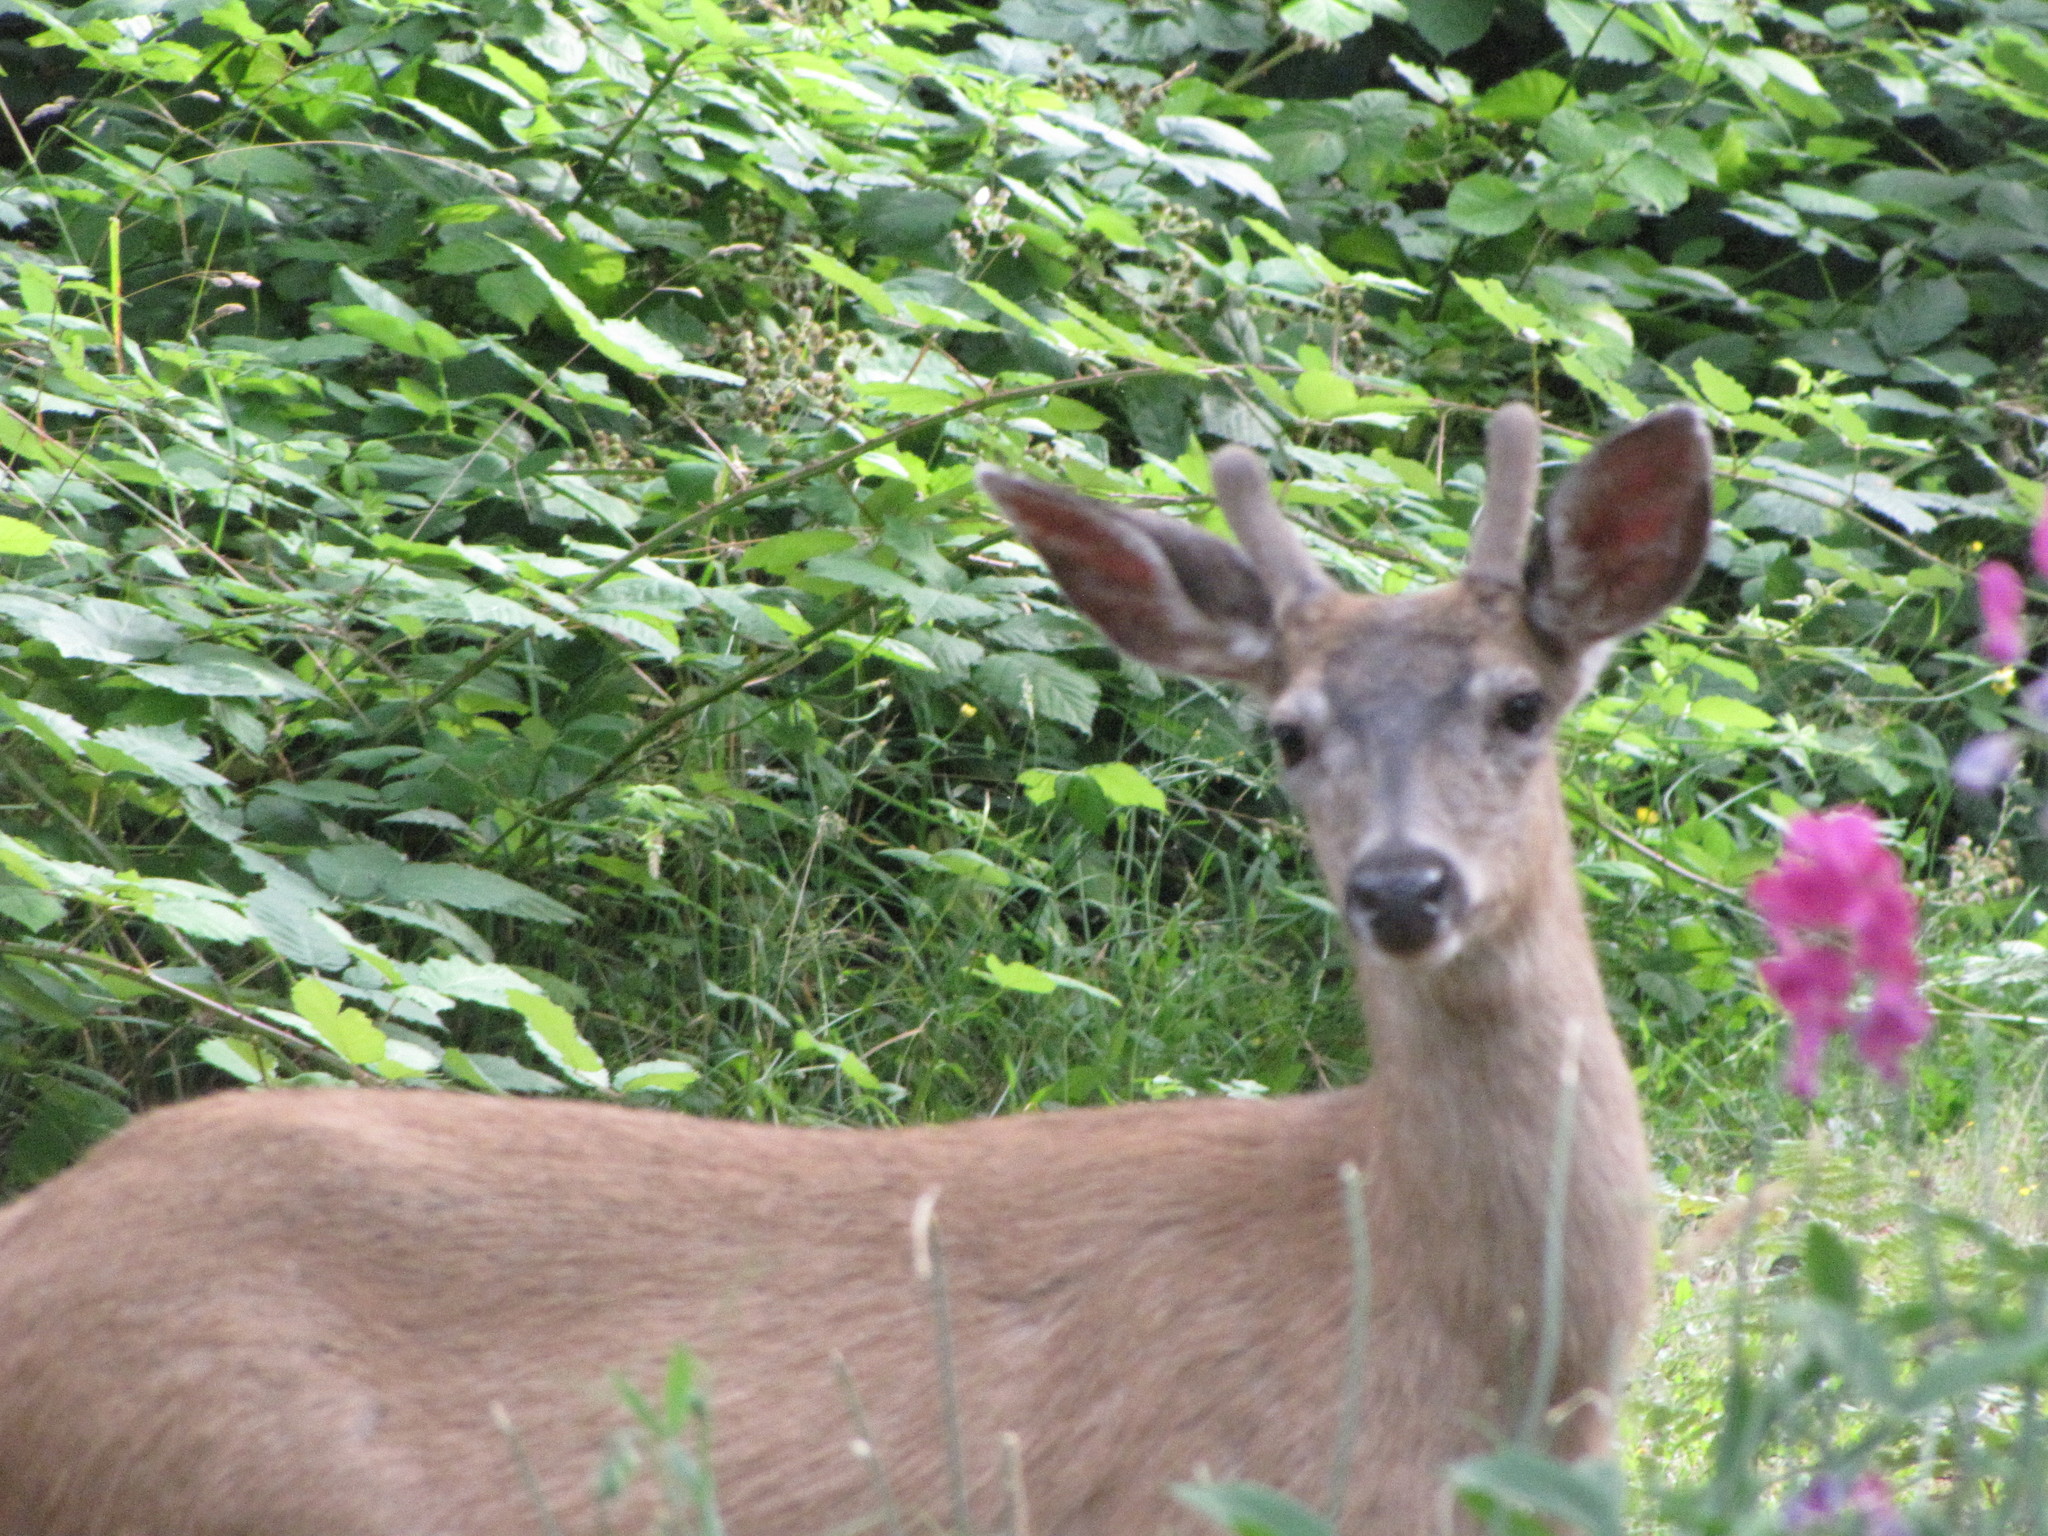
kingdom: Animalia
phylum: Chordata
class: Mammalia
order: Artiodactyla
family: Cervidae
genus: Odocoileus
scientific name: Odocoileus hemionus
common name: Mule deer
